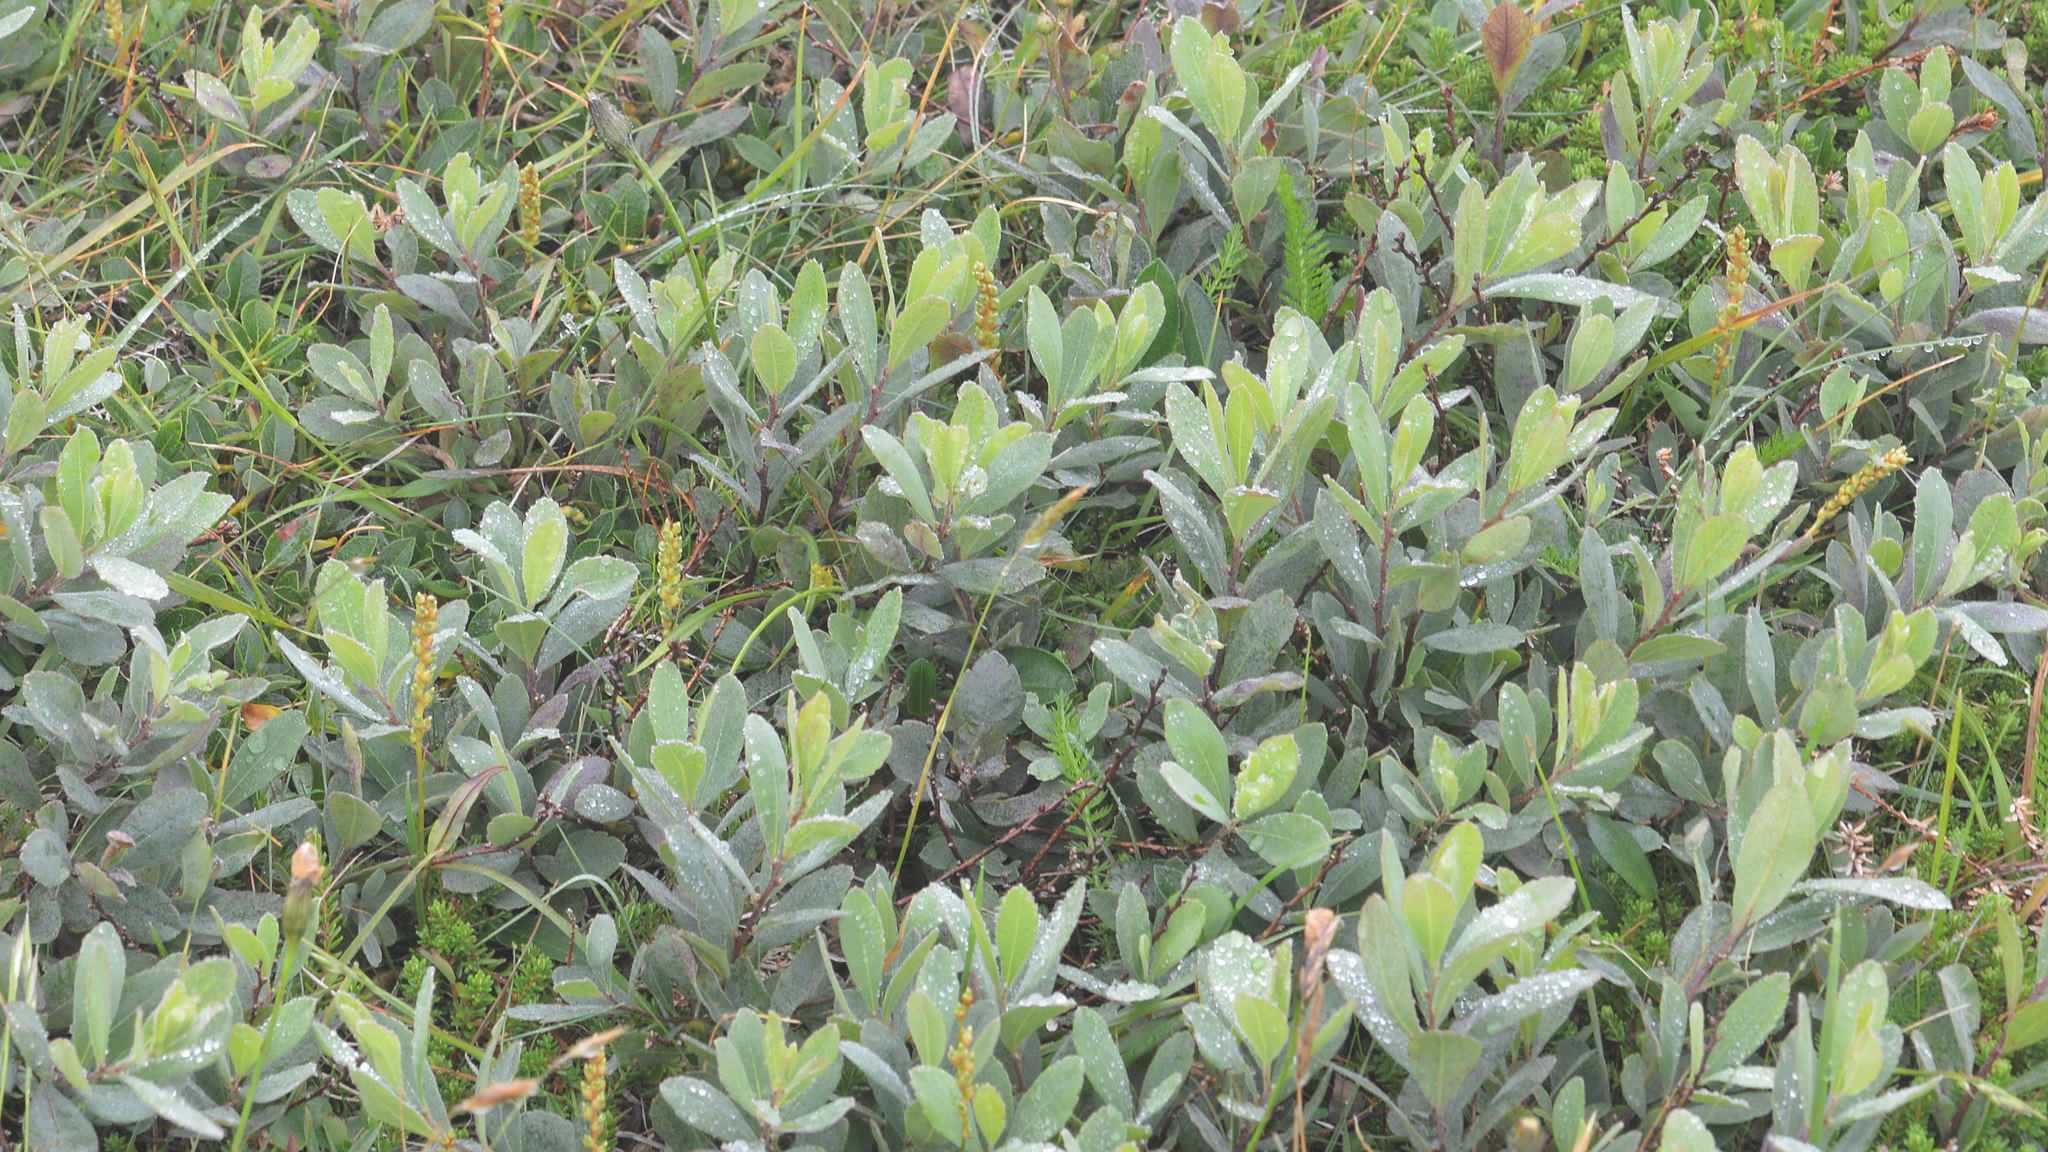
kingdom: Plantae
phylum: Tracheophyta
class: Magnoliopsida
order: Fagales
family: Myricaceae
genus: Myrica
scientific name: Myrica gale
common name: Sweet gale
